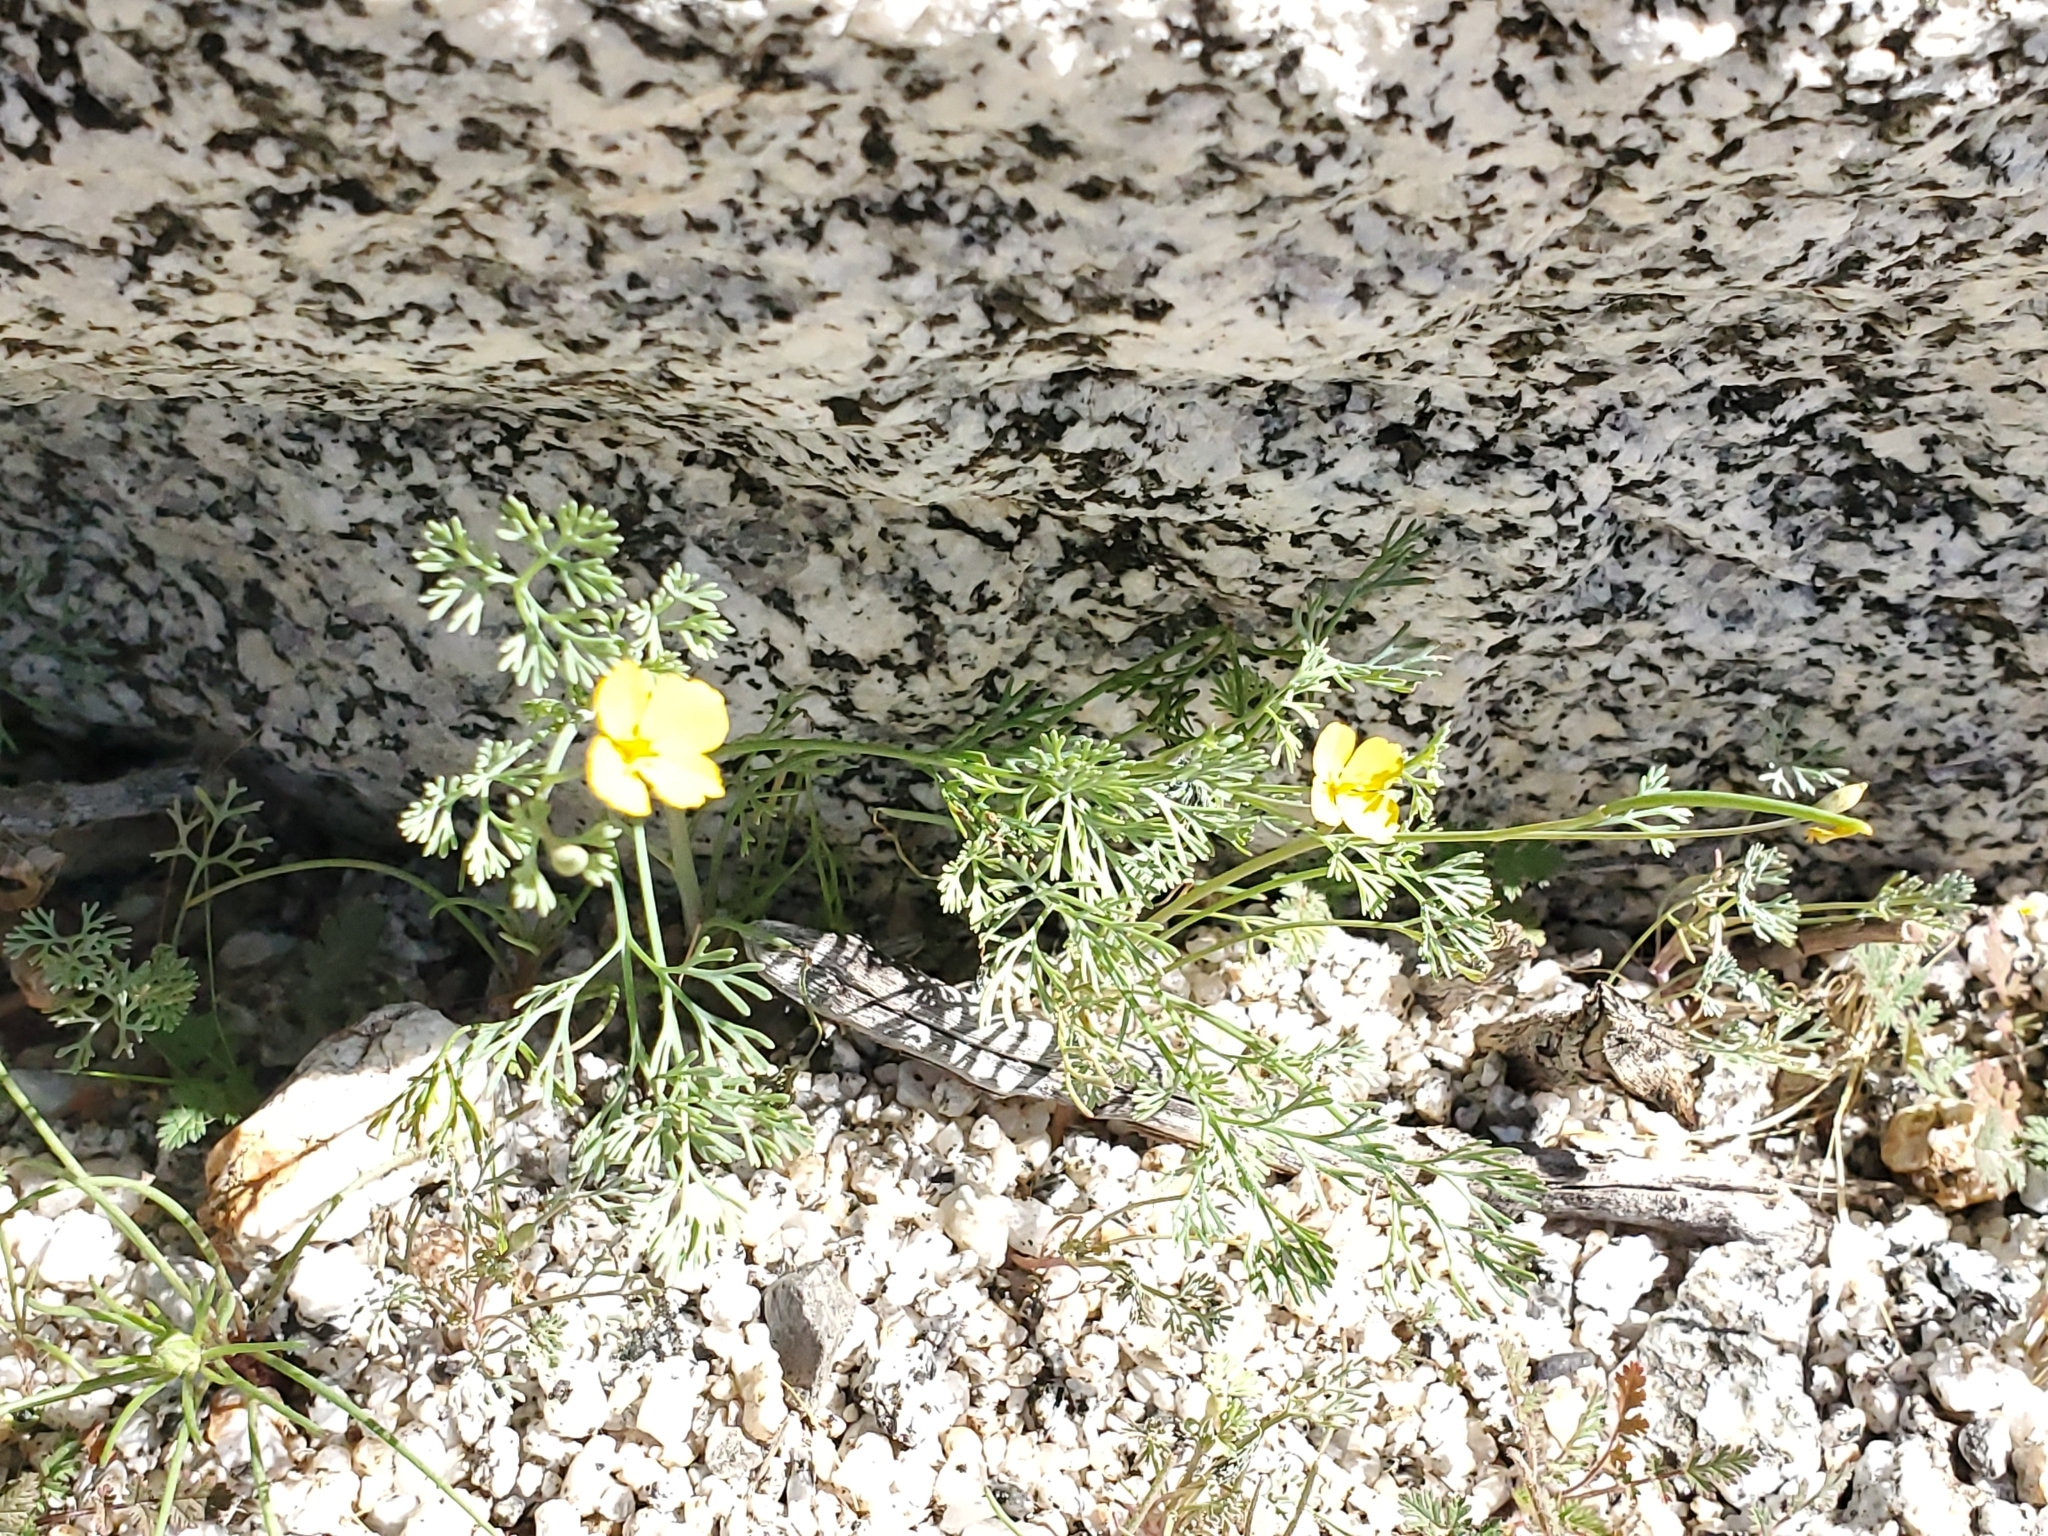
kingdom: Plantae
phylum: Tracheophyta
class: Magnoliopsida
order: Ranunculales
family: Papaveraceae
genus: Eschscholzia
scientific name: Eschscholzia parishii
